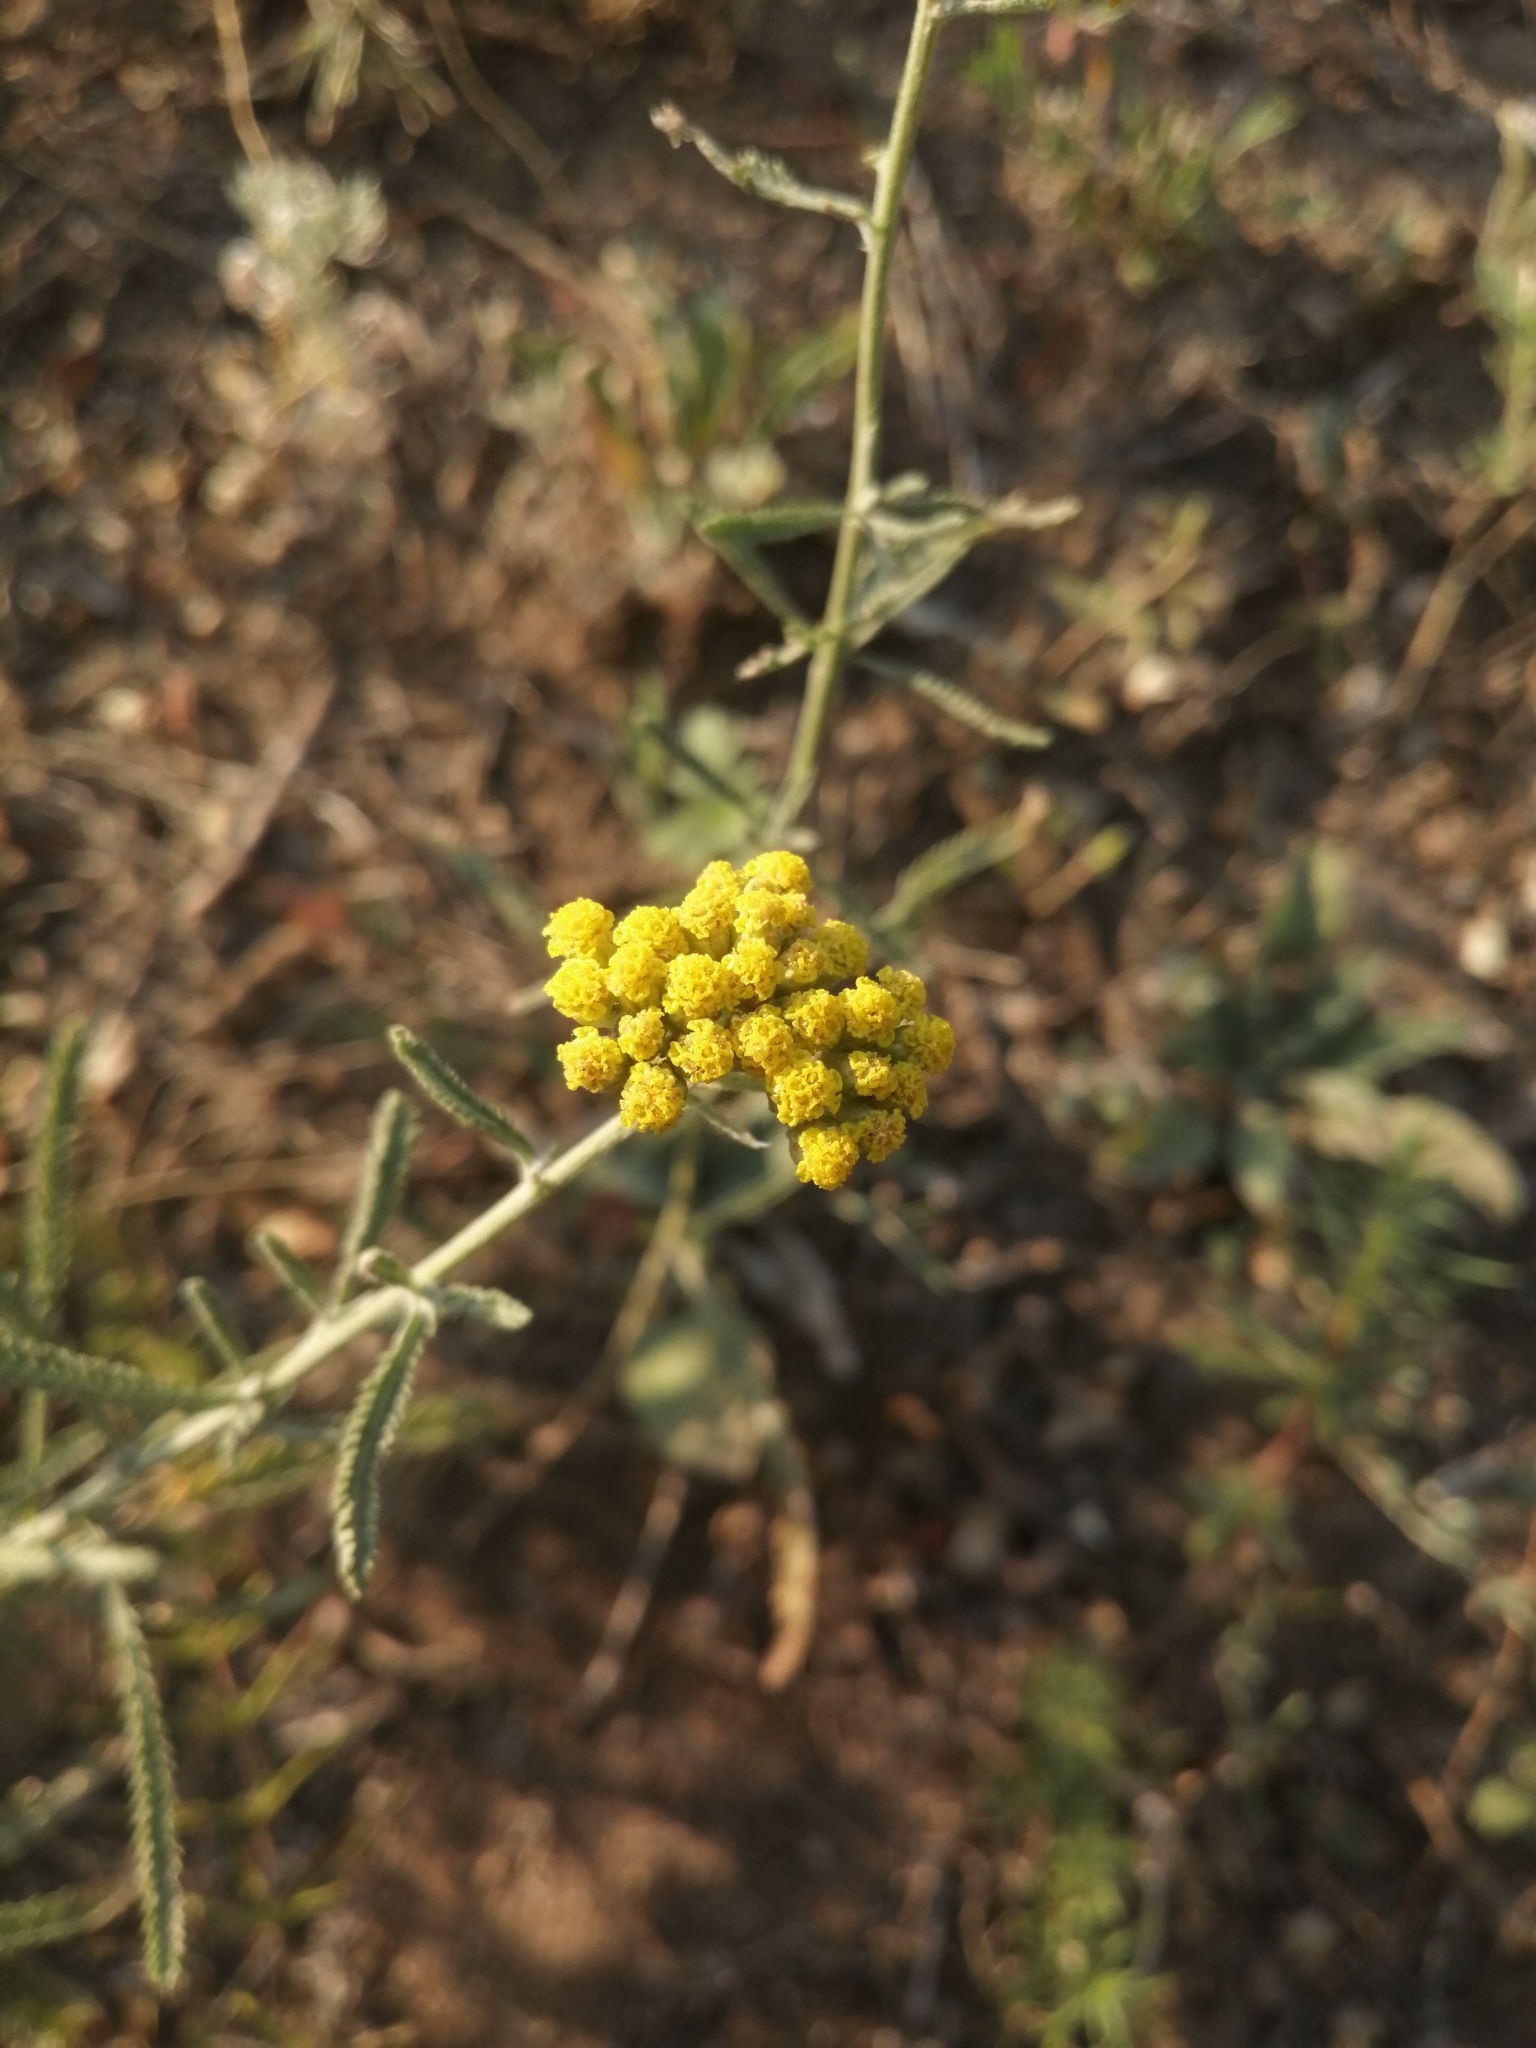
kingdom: Plantae
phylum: Tracheophyta
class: Magnoliopsida
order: Asterales
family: Asteraceae
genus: Achillea
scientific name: Achillea micrantha
